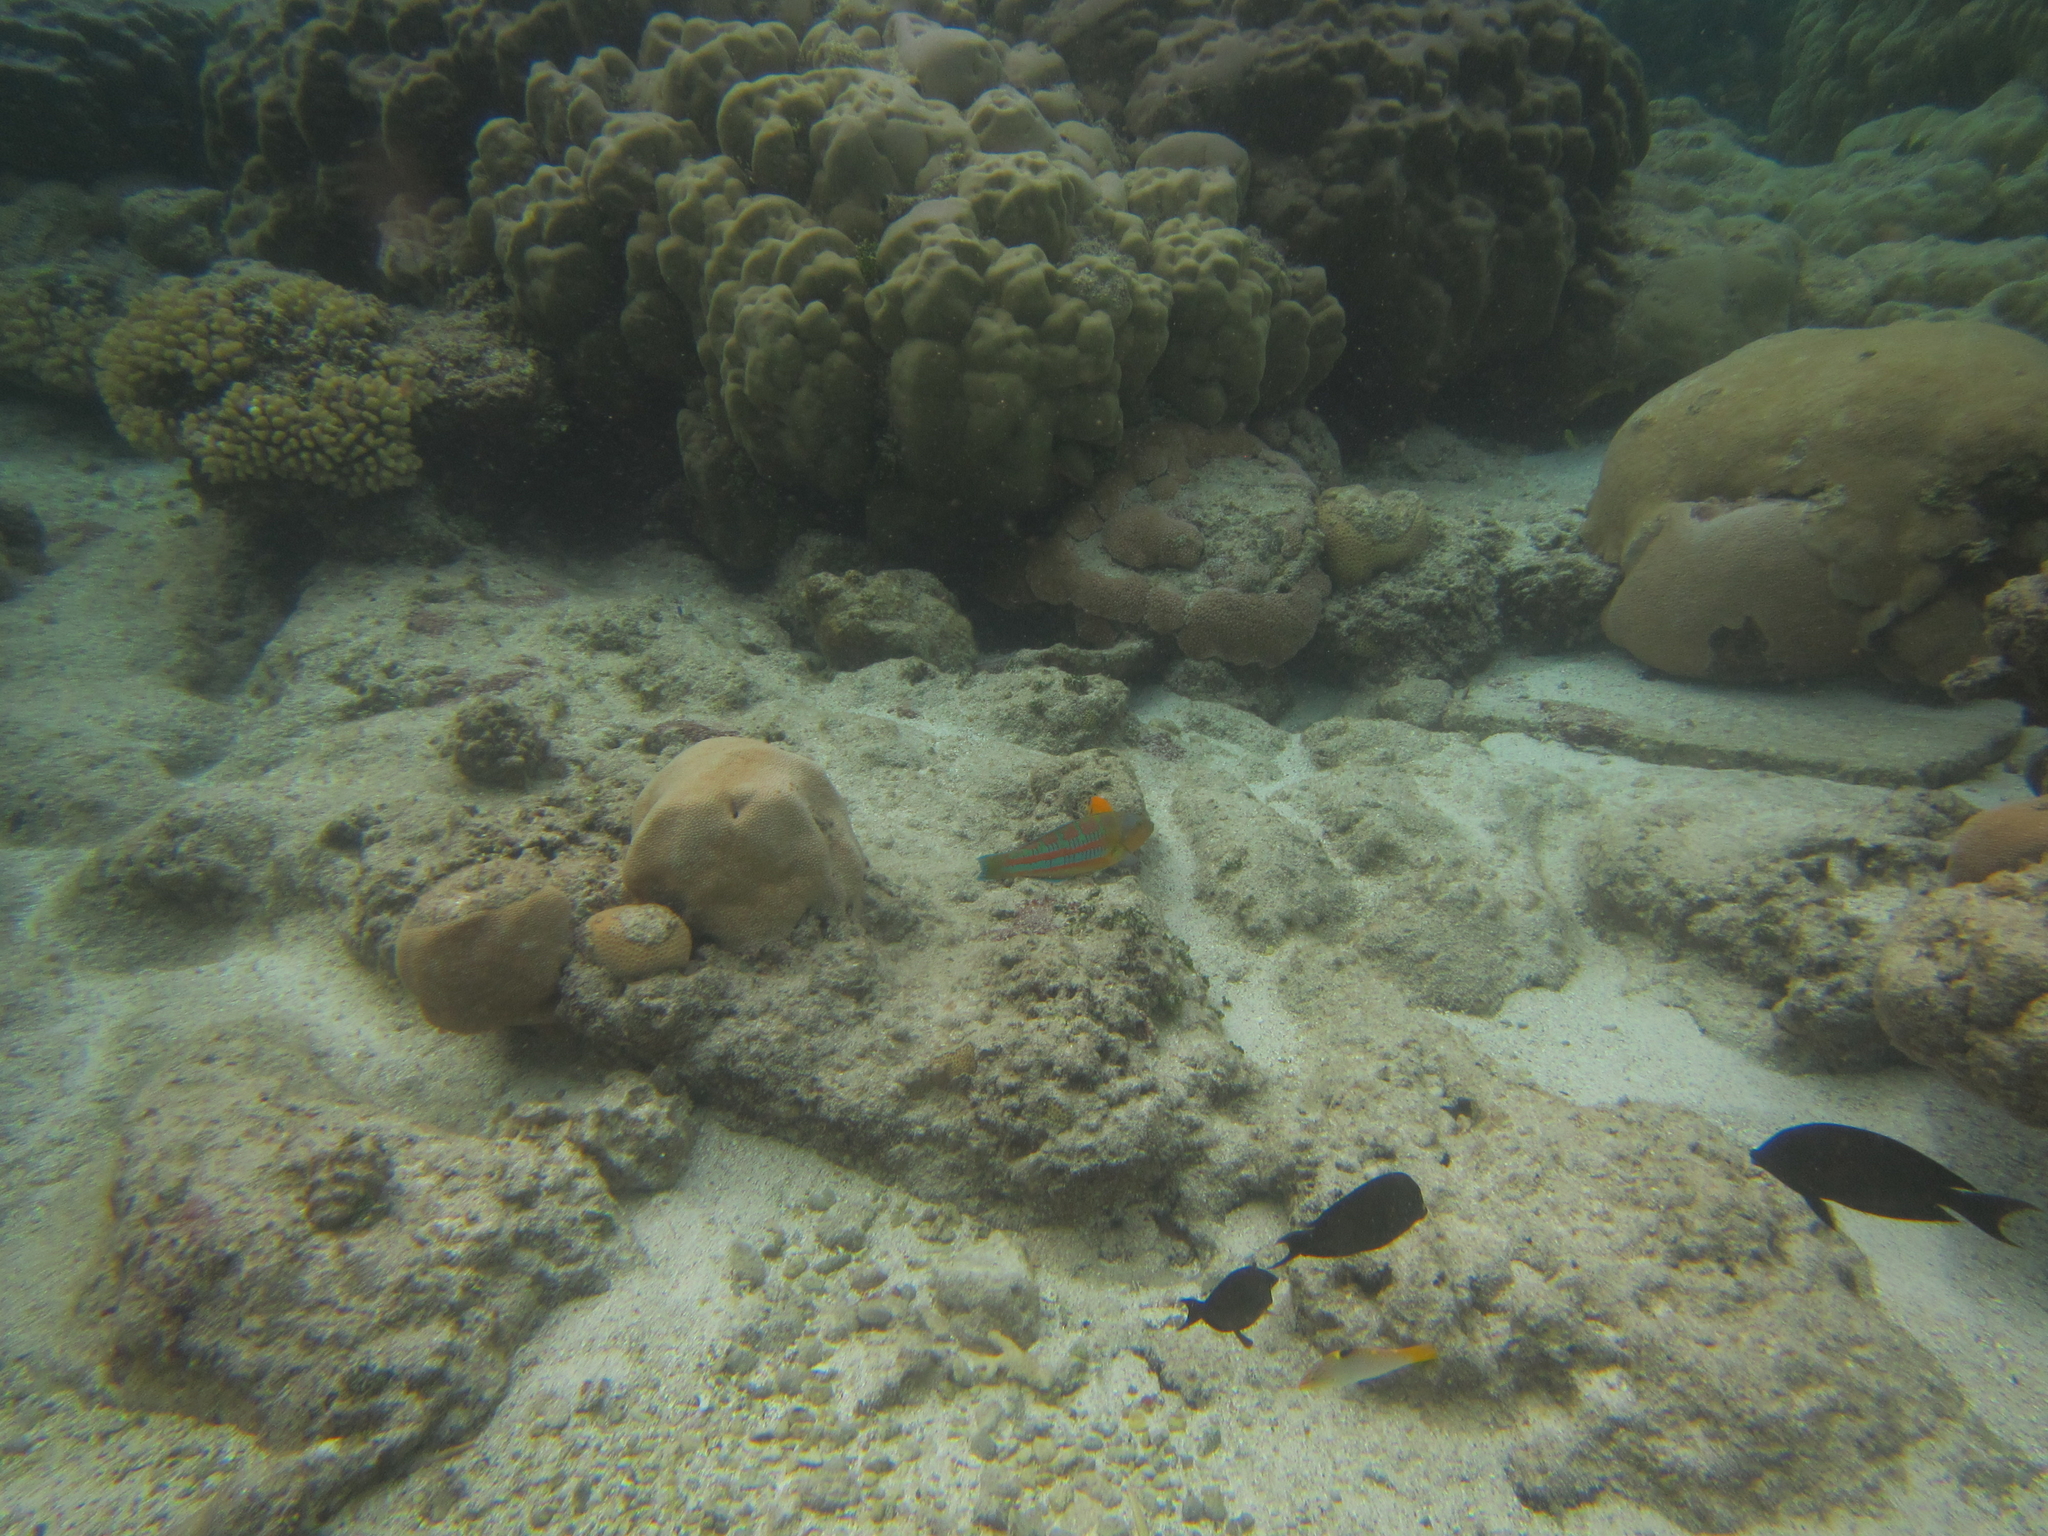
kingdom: Animalia
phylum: Chordata
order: Perciformes
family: Labridae
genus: Thalassoma
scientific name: Thalassoma trilobatum
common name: Christmas wrasse
